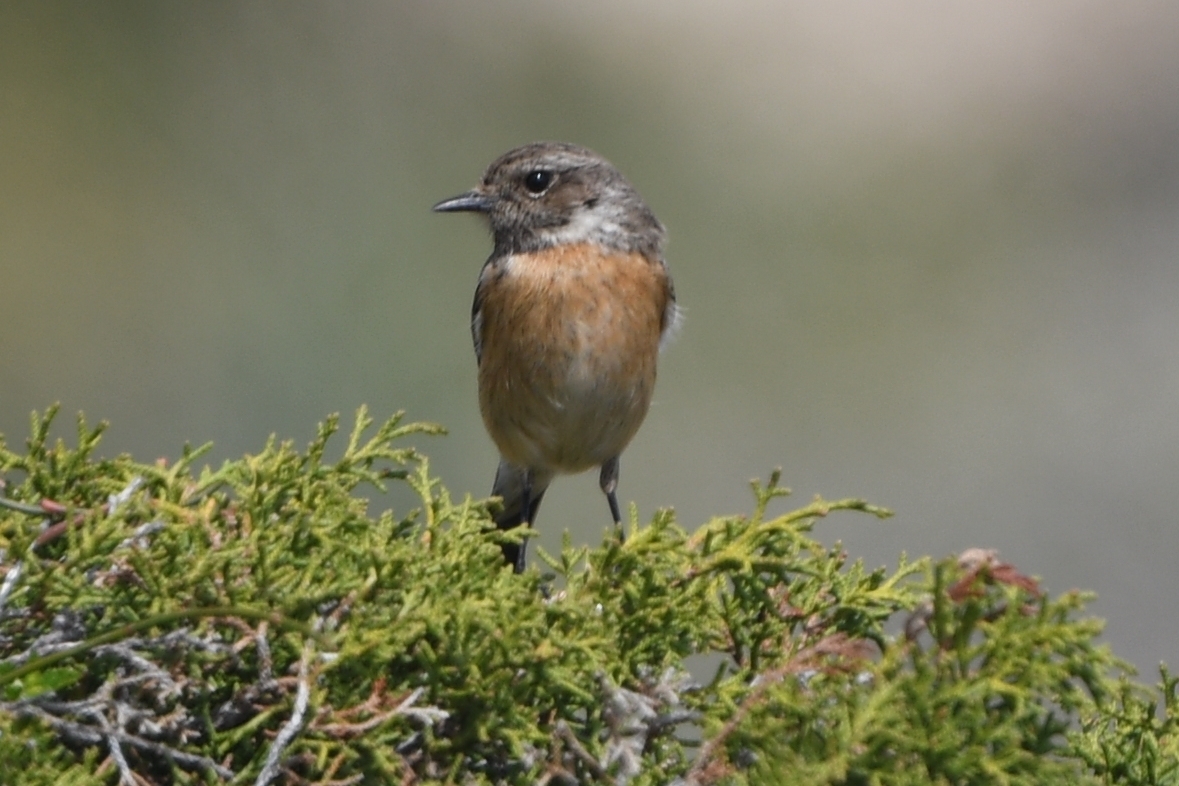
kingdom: Animalia
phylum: Chordata
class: Aves
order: Passeriformes
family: Muscicapidae
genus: Saxicola
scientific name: Saxicola rubicola
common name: European stonechat
